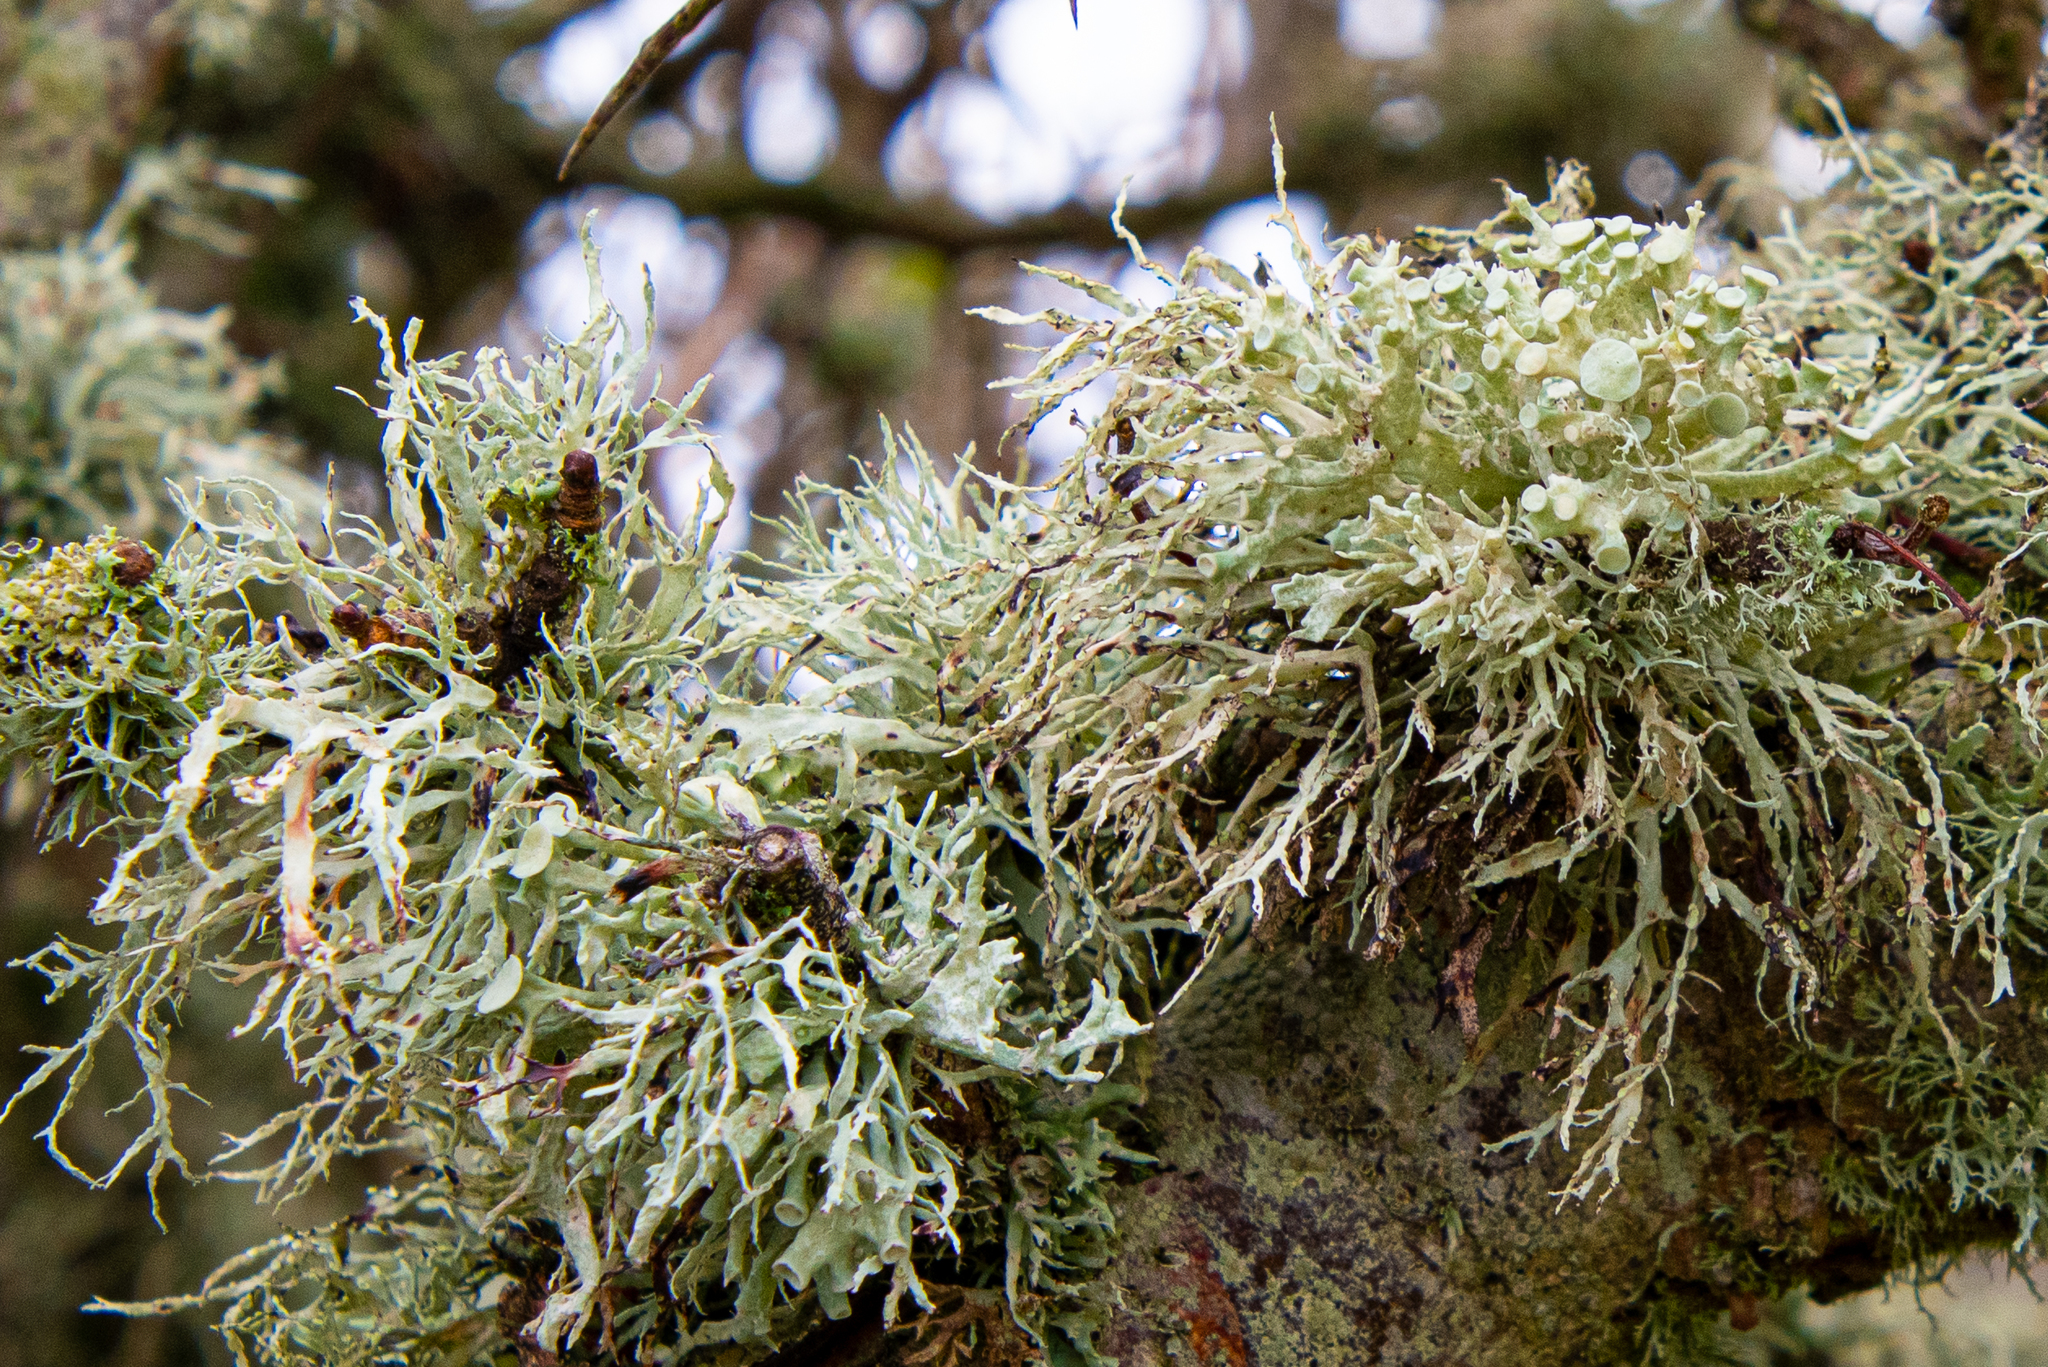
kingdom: Fungi
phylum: Ascomycota
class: Lecanoromycetes
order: Lecanorales
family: Ramalinaceae
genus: Ramalina
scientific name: Ramalina fastigiata
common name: Dotted ribbon lichen
